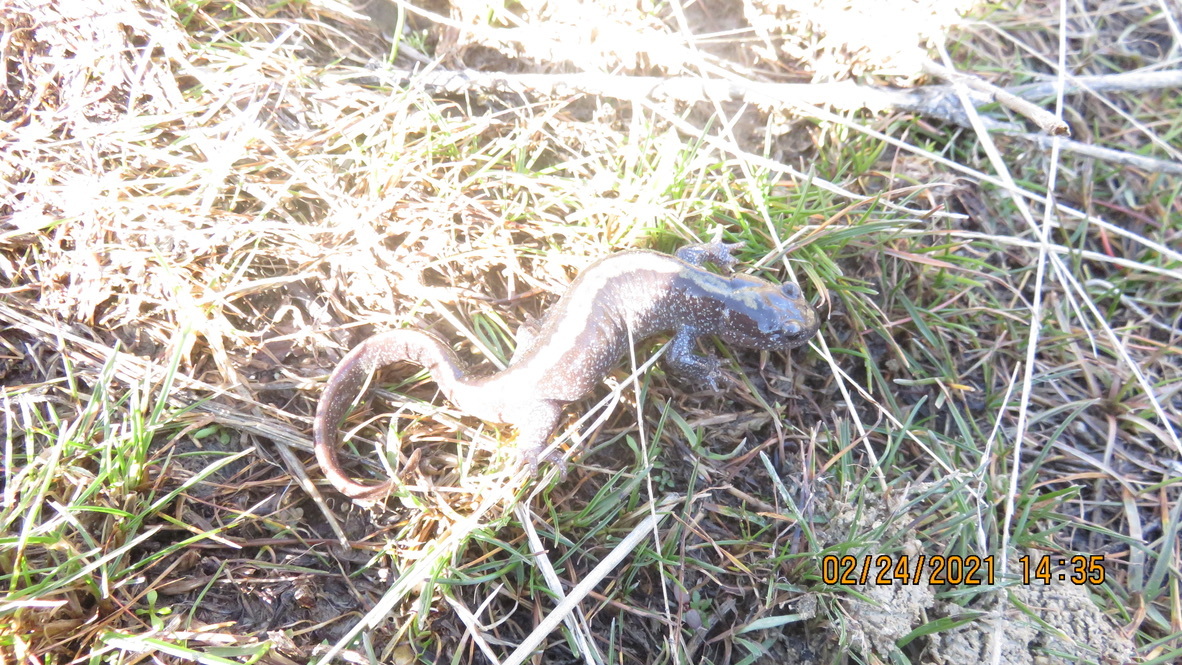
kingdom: Animalia
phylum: Chordata
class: Amphibia
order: Caudata
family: Ambystomatidae
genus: Ambystoma
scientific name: Ambystoma macrodactylum
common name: Long-toed salamander
